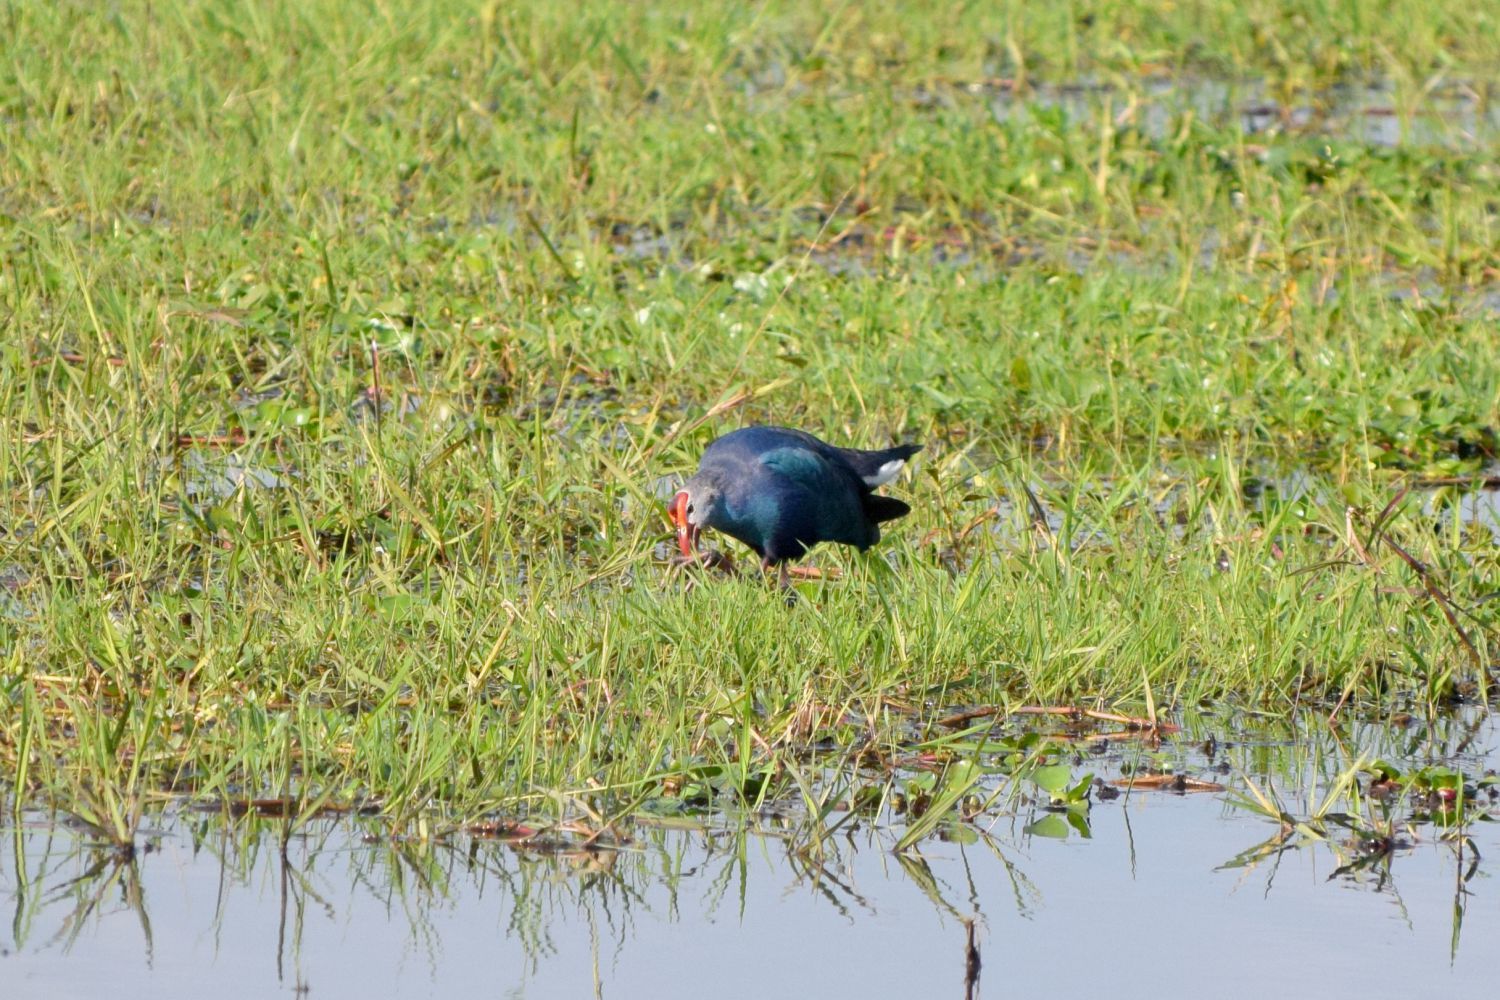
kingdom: Animalia
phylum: Chordata
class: Aves
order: Gruiformes
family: Rallidae
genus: Porphyrio
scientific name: Porphyrio porphyrio
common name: Purple swamphen
